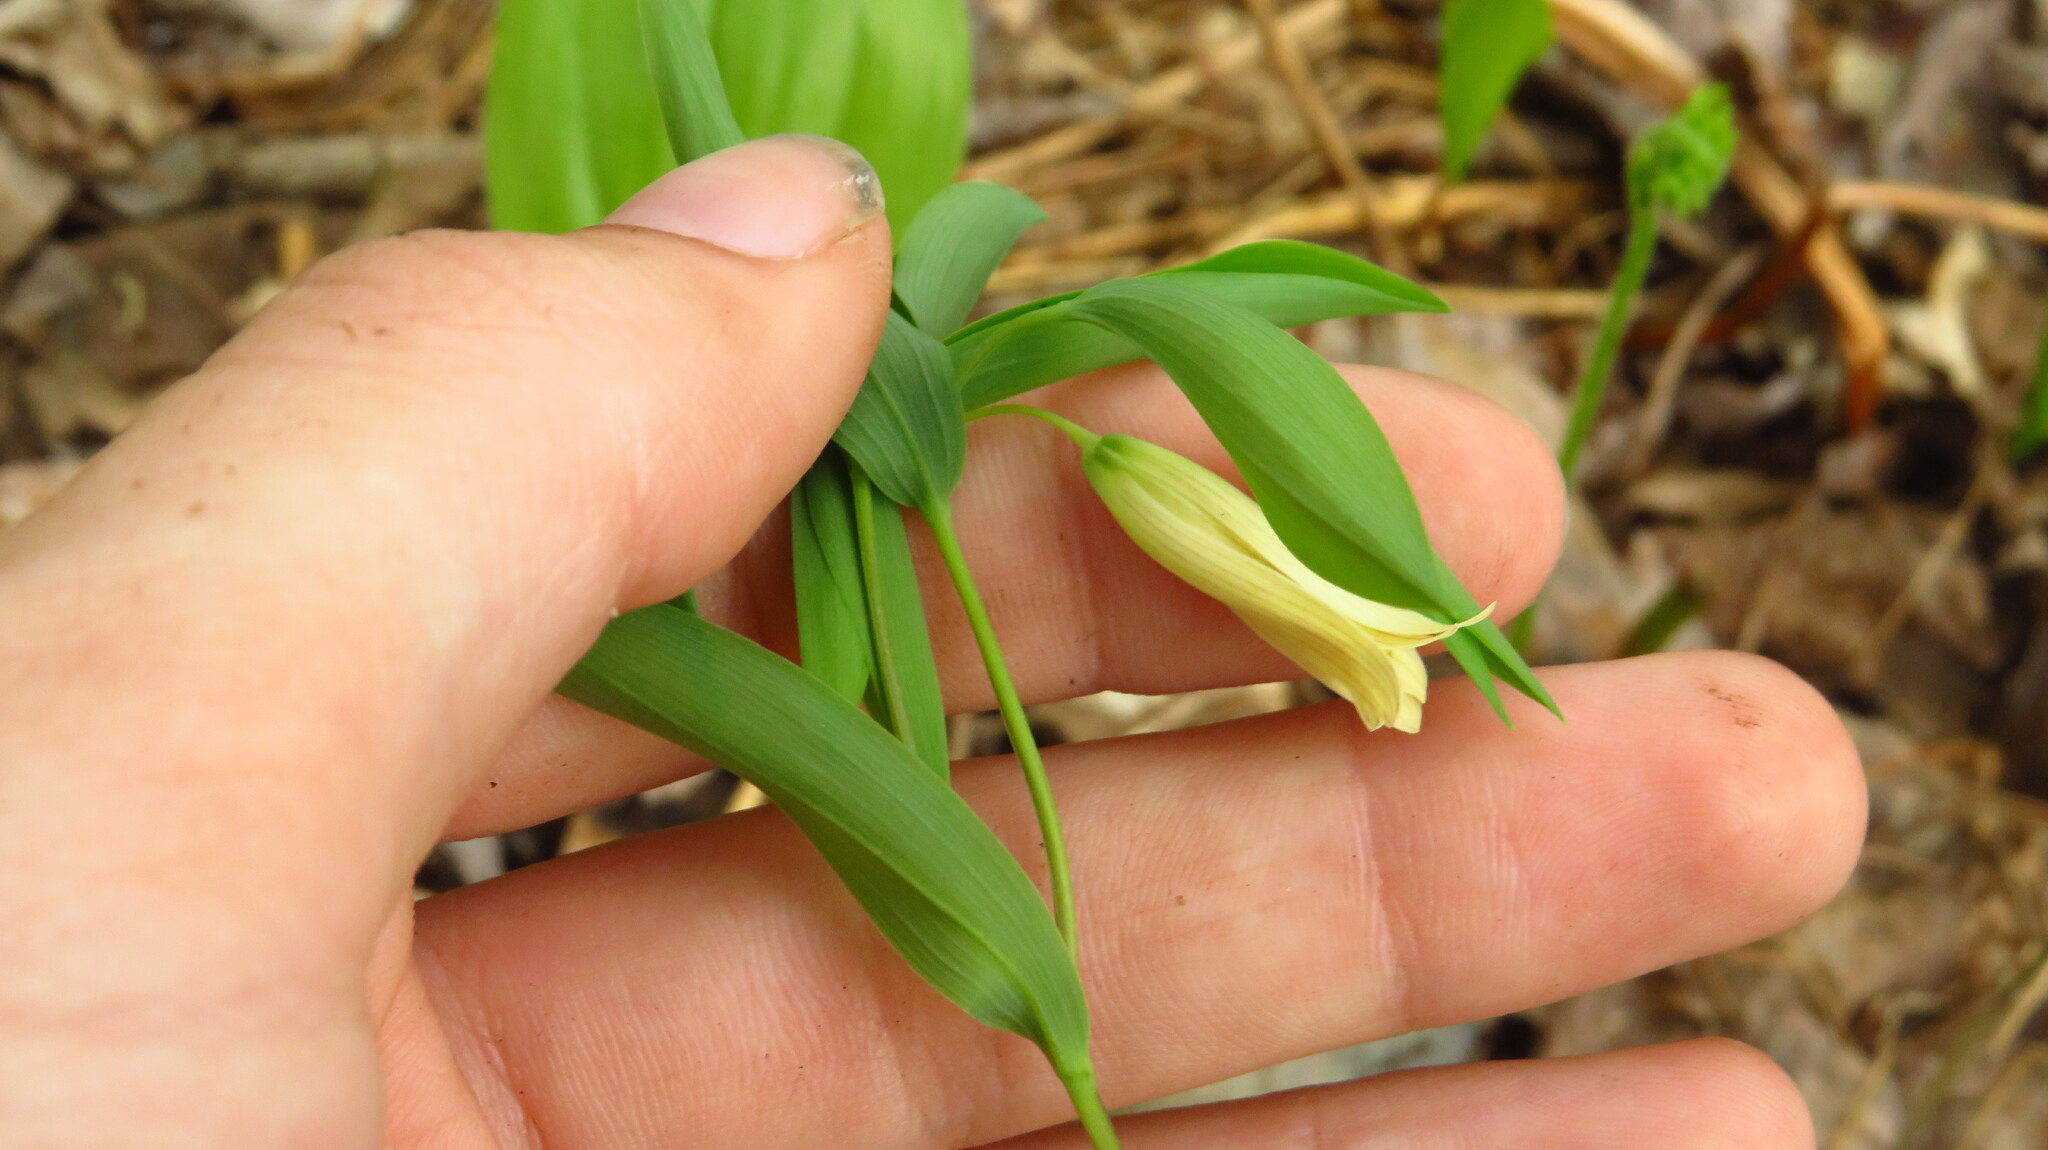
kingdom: Plantae
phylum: Tracheophyta
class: Liliopsida
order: Liliales
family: Colchicaceae
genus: Uvularia
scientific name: Uvularia sessilifolia
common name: Straw-lily
